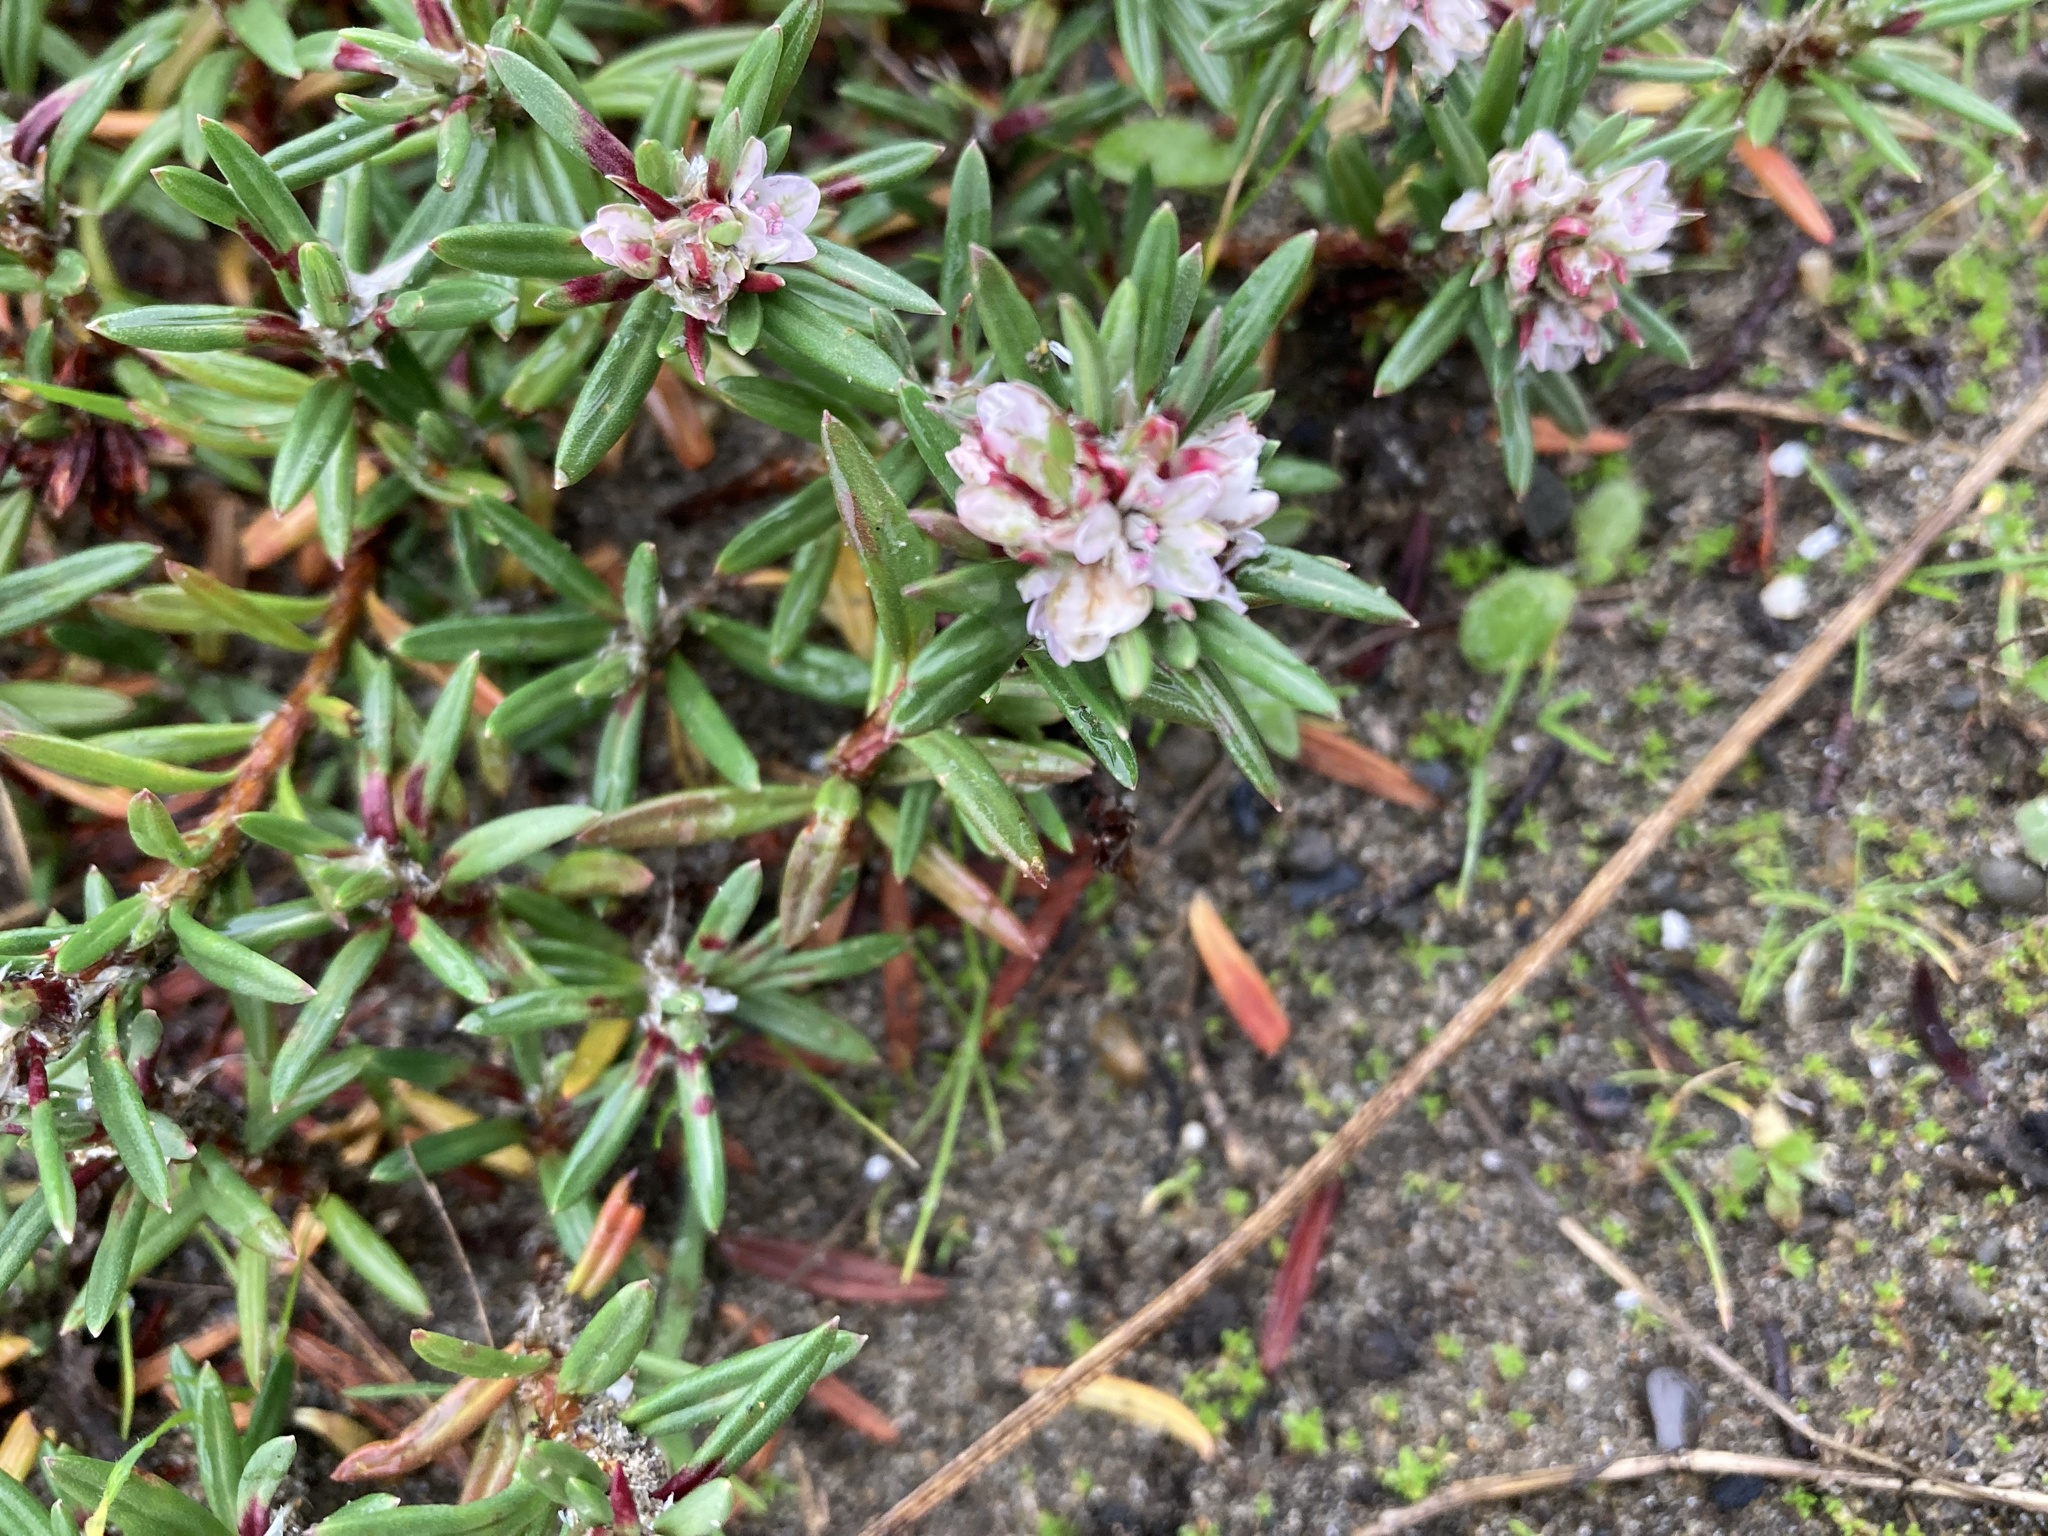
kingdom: Plantae
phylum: Tracheophyta
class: Magnoliopsida
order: Caryophyllales
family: Polygonaceae
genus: Polygonum
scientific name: Polygonum paronychia
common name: Dune knotweed
